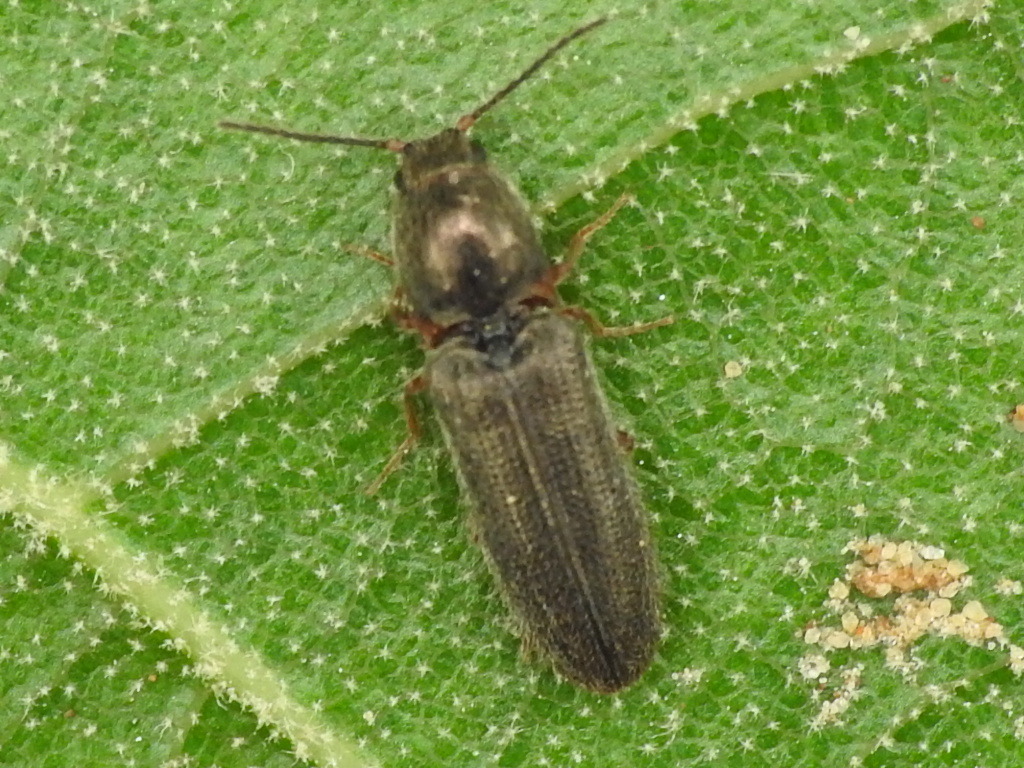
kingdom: Animalia
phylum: Arthropoda
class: Insecta
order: Coleoptera
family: Elateridae
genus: Limonius
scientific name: Limonius basilaris
